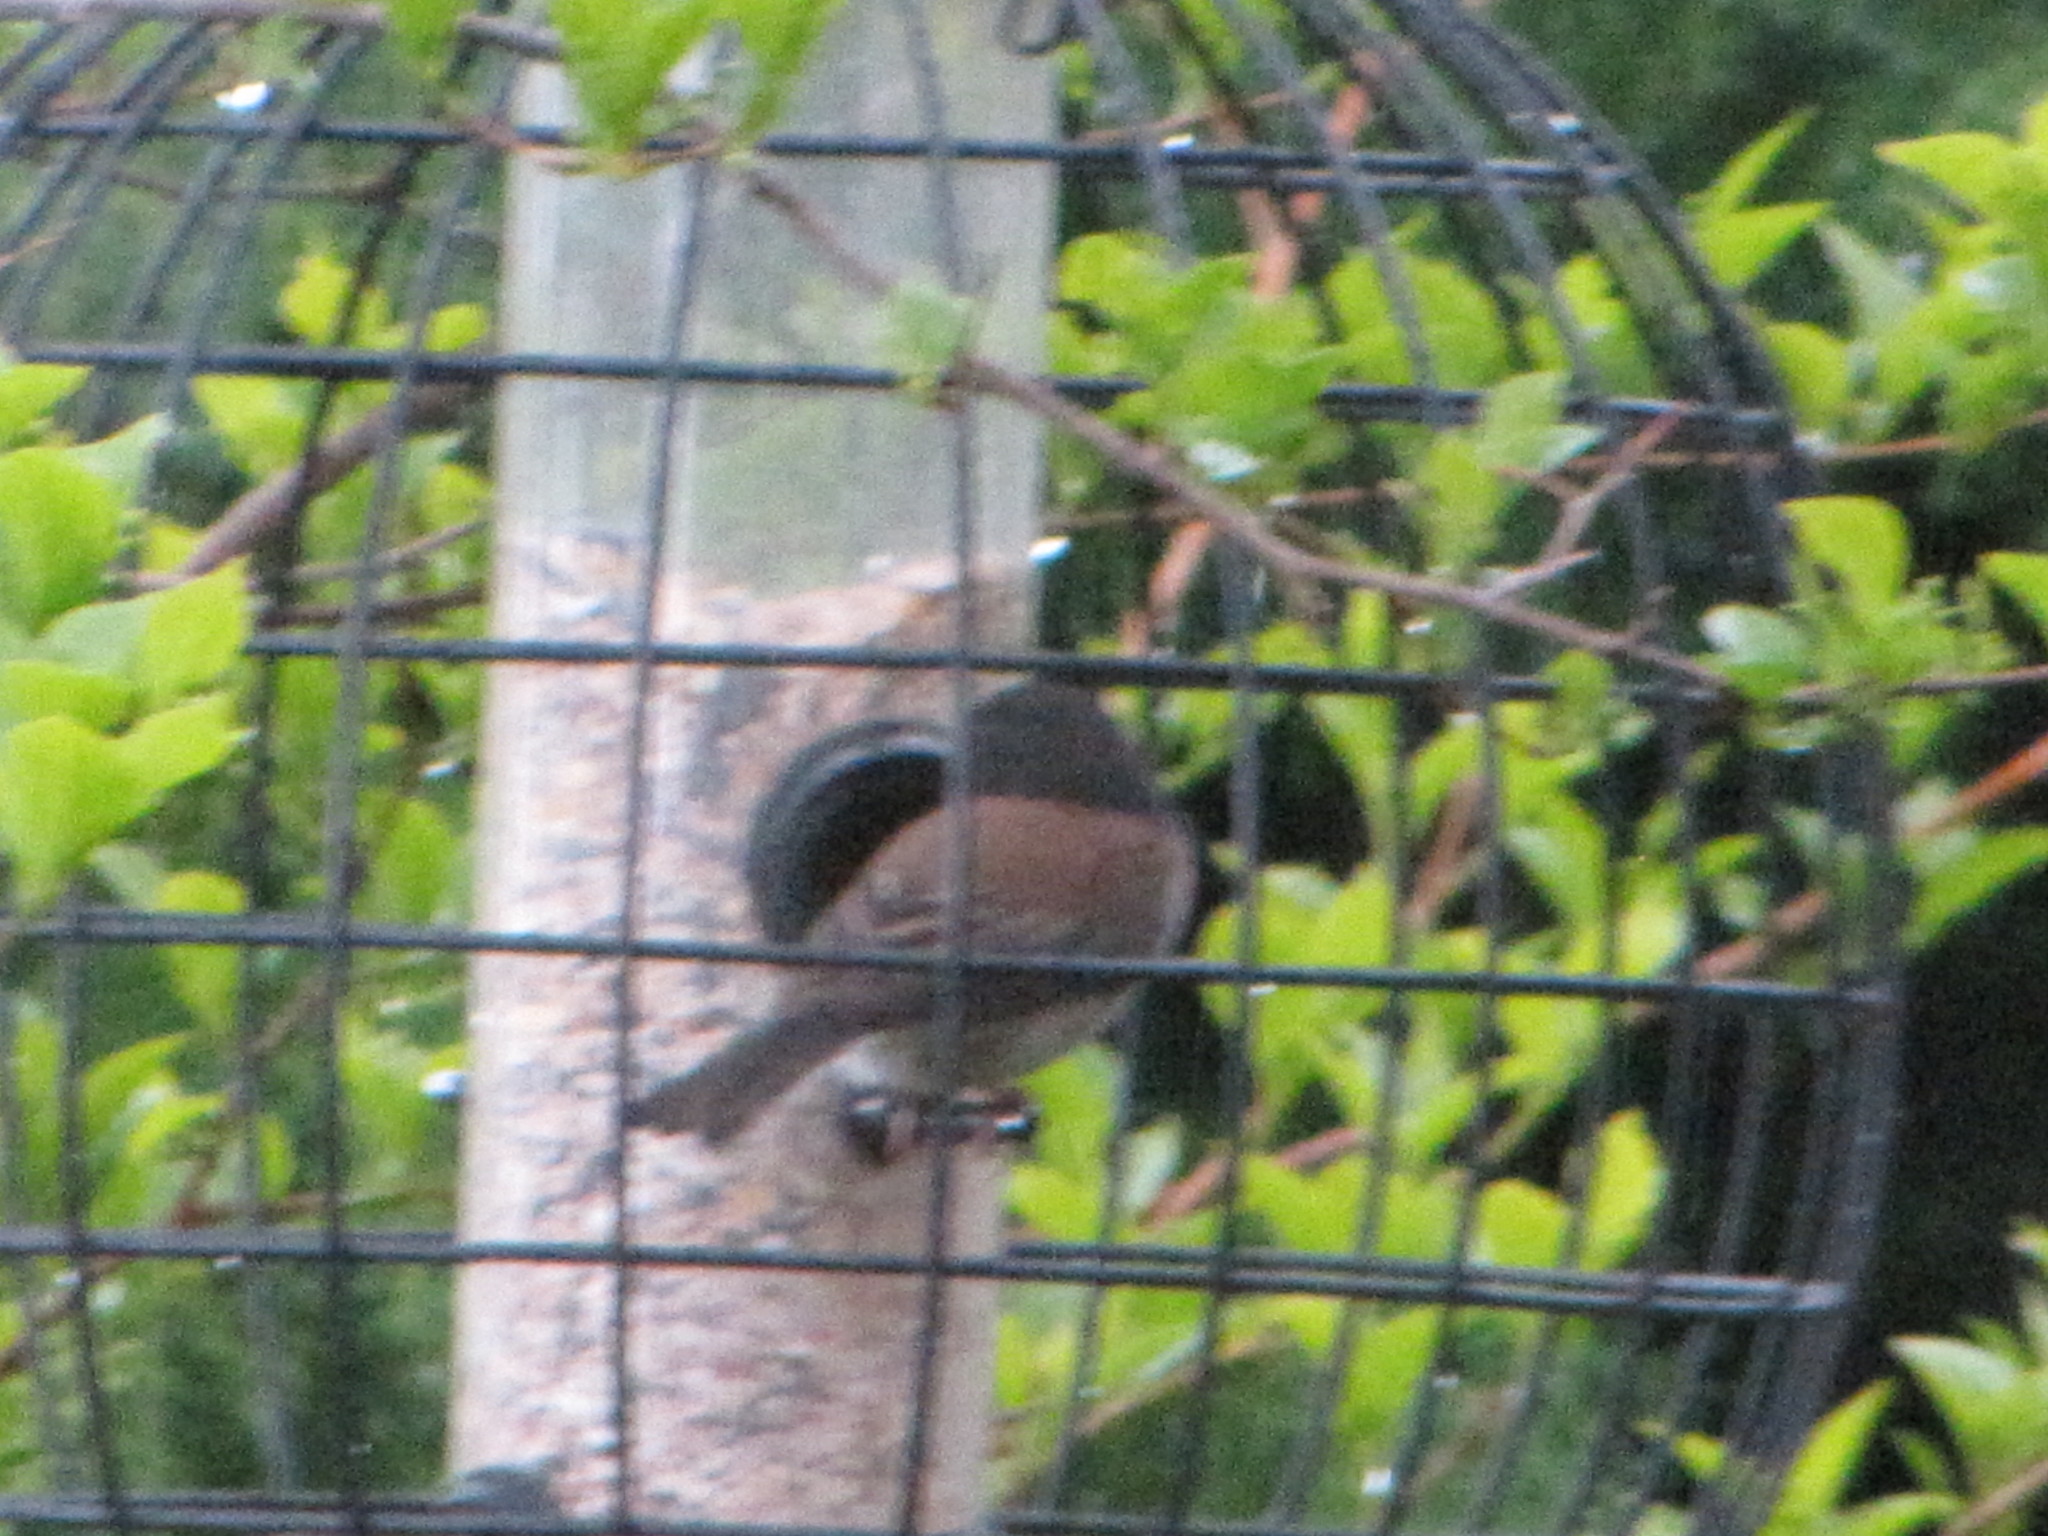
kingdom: Animalia
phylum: Chordata
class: Aves
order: Passeriformes
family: Passerellidae
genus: Junco
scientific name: Junco hyemalis
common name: Dark-eyed junco
